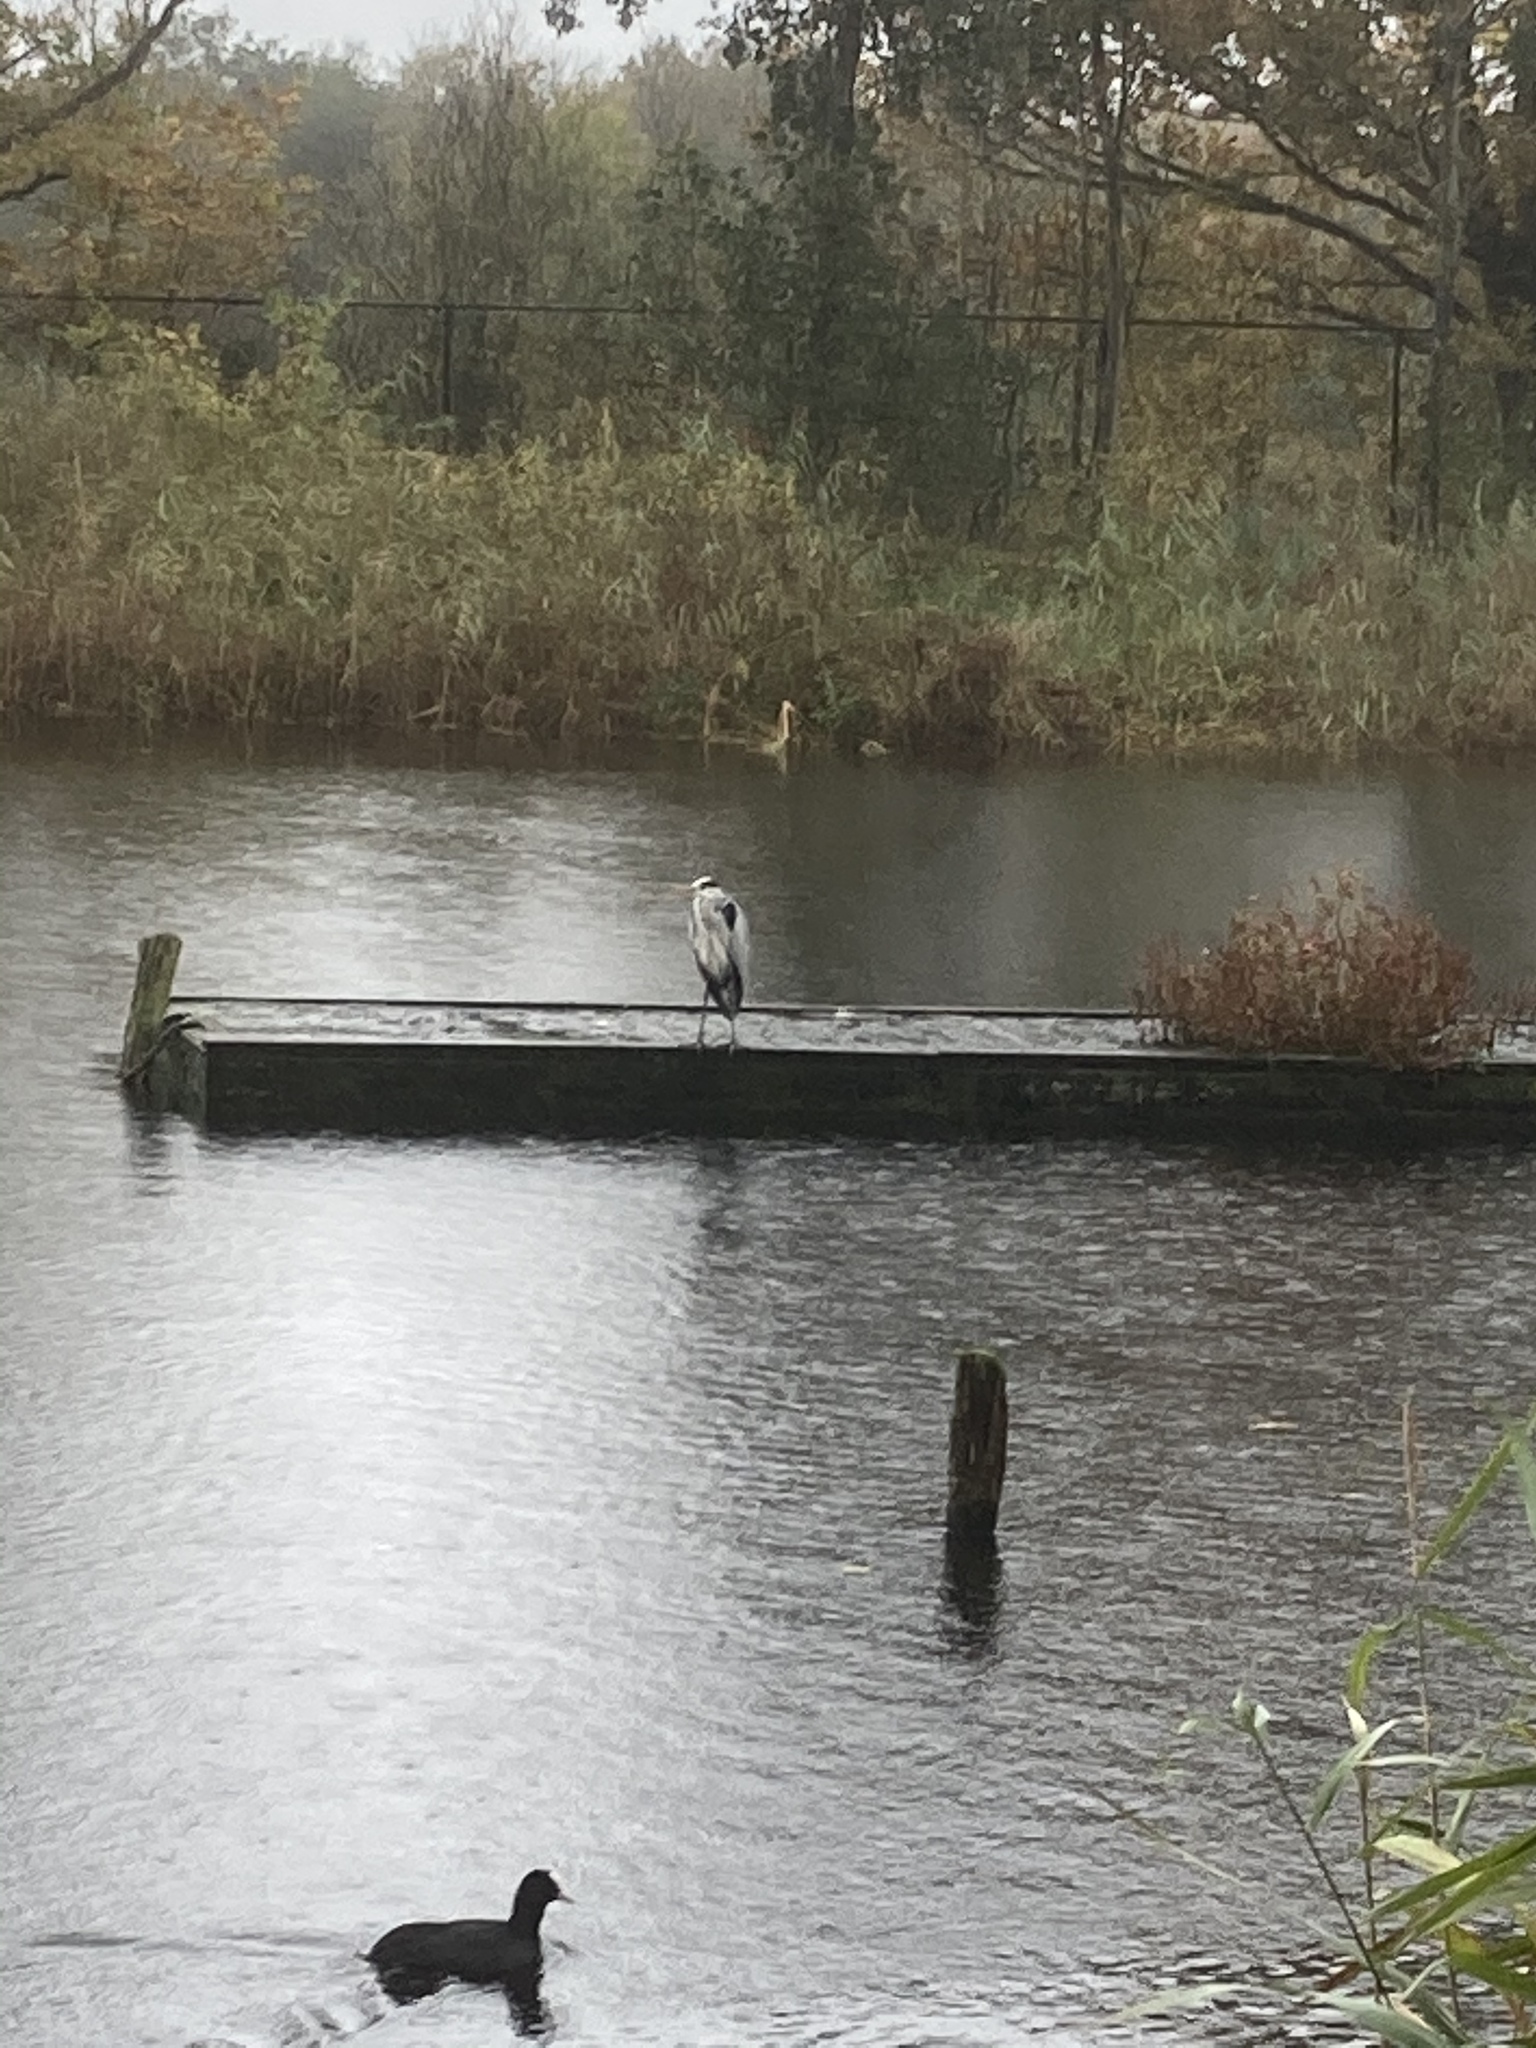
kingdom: Animalia
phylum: Chordata
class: Aves
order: Pelecaniformes
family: Ardeidae
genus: Ardea
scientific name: Ardea cinerea
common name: Grey heron
